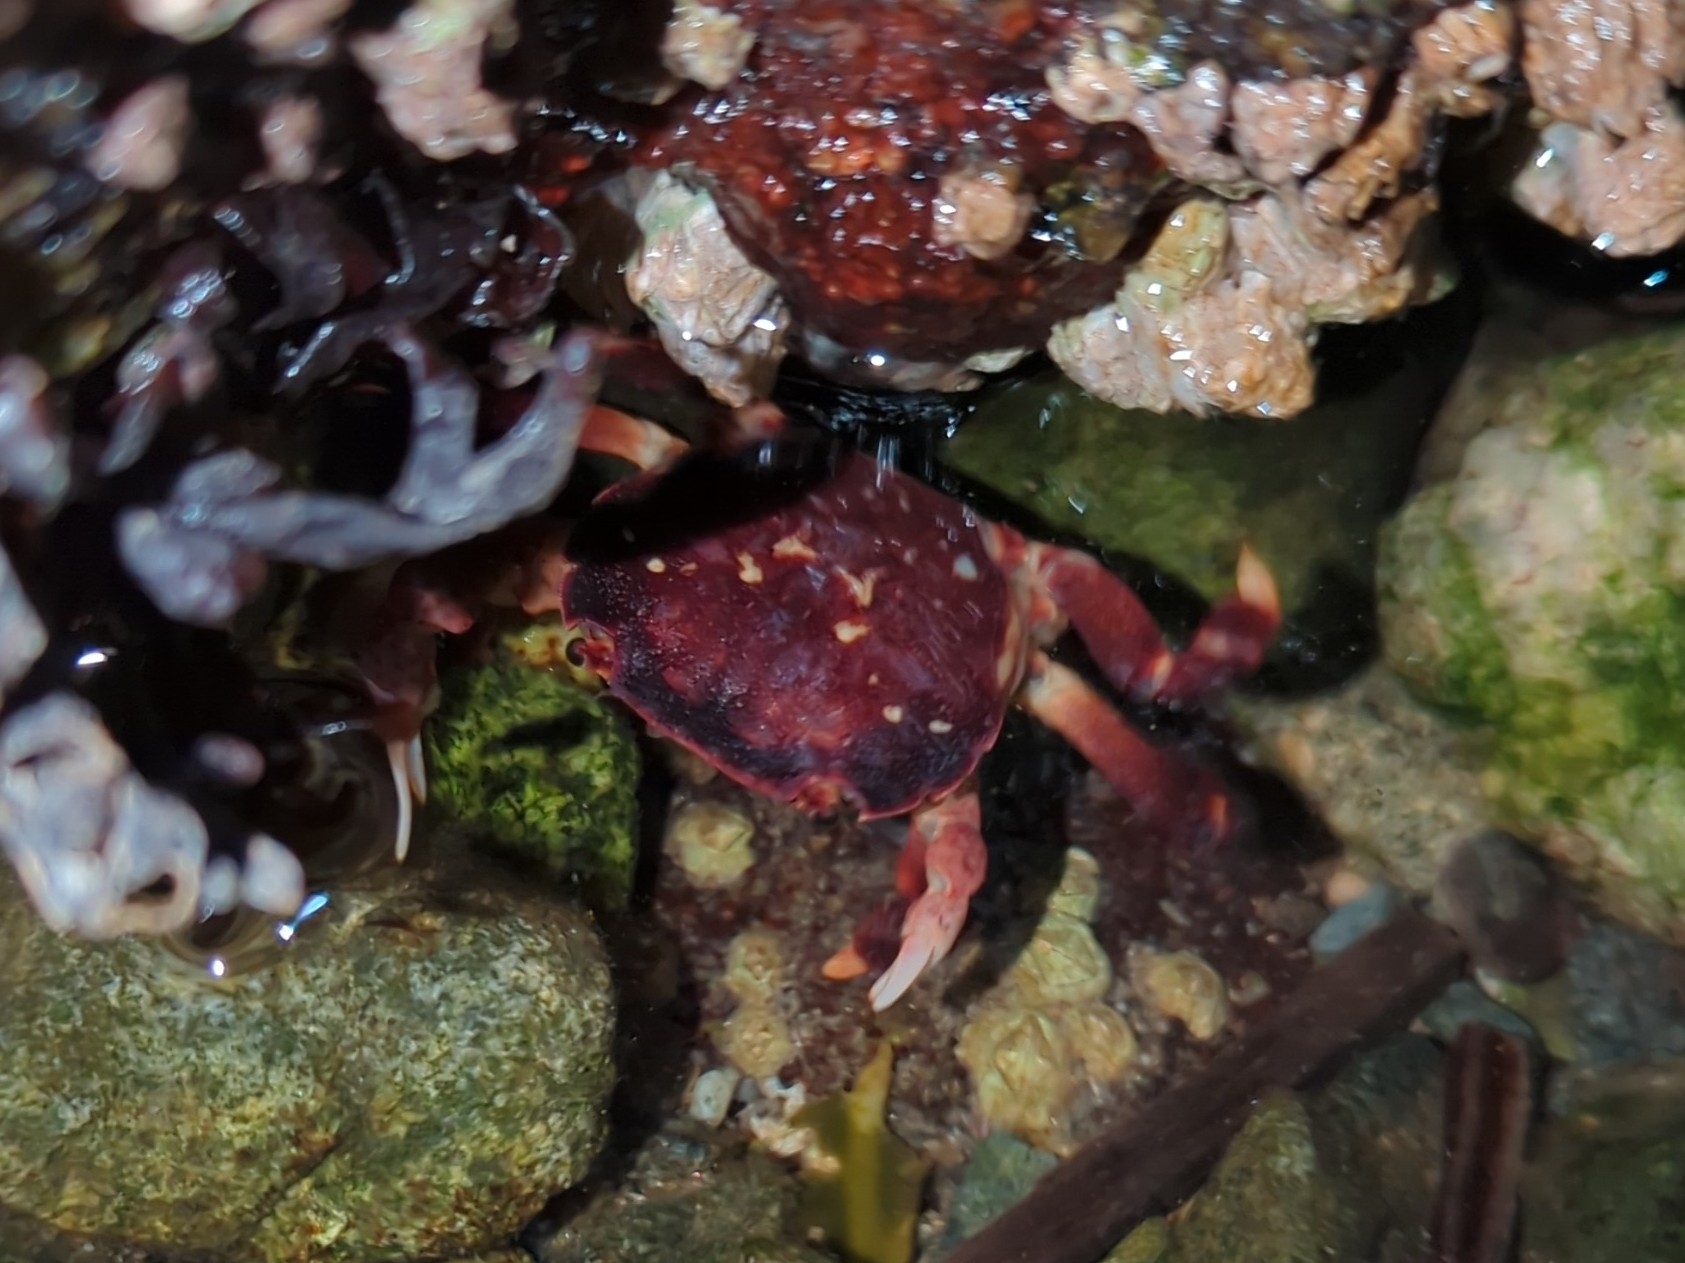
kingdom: Animalia
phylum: Arthropoda
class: Malacostraca
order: Decapoda
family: Varunidae
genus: Hemigrapsus
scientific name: Hemigrapsus nudus
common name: Purple shore crab
